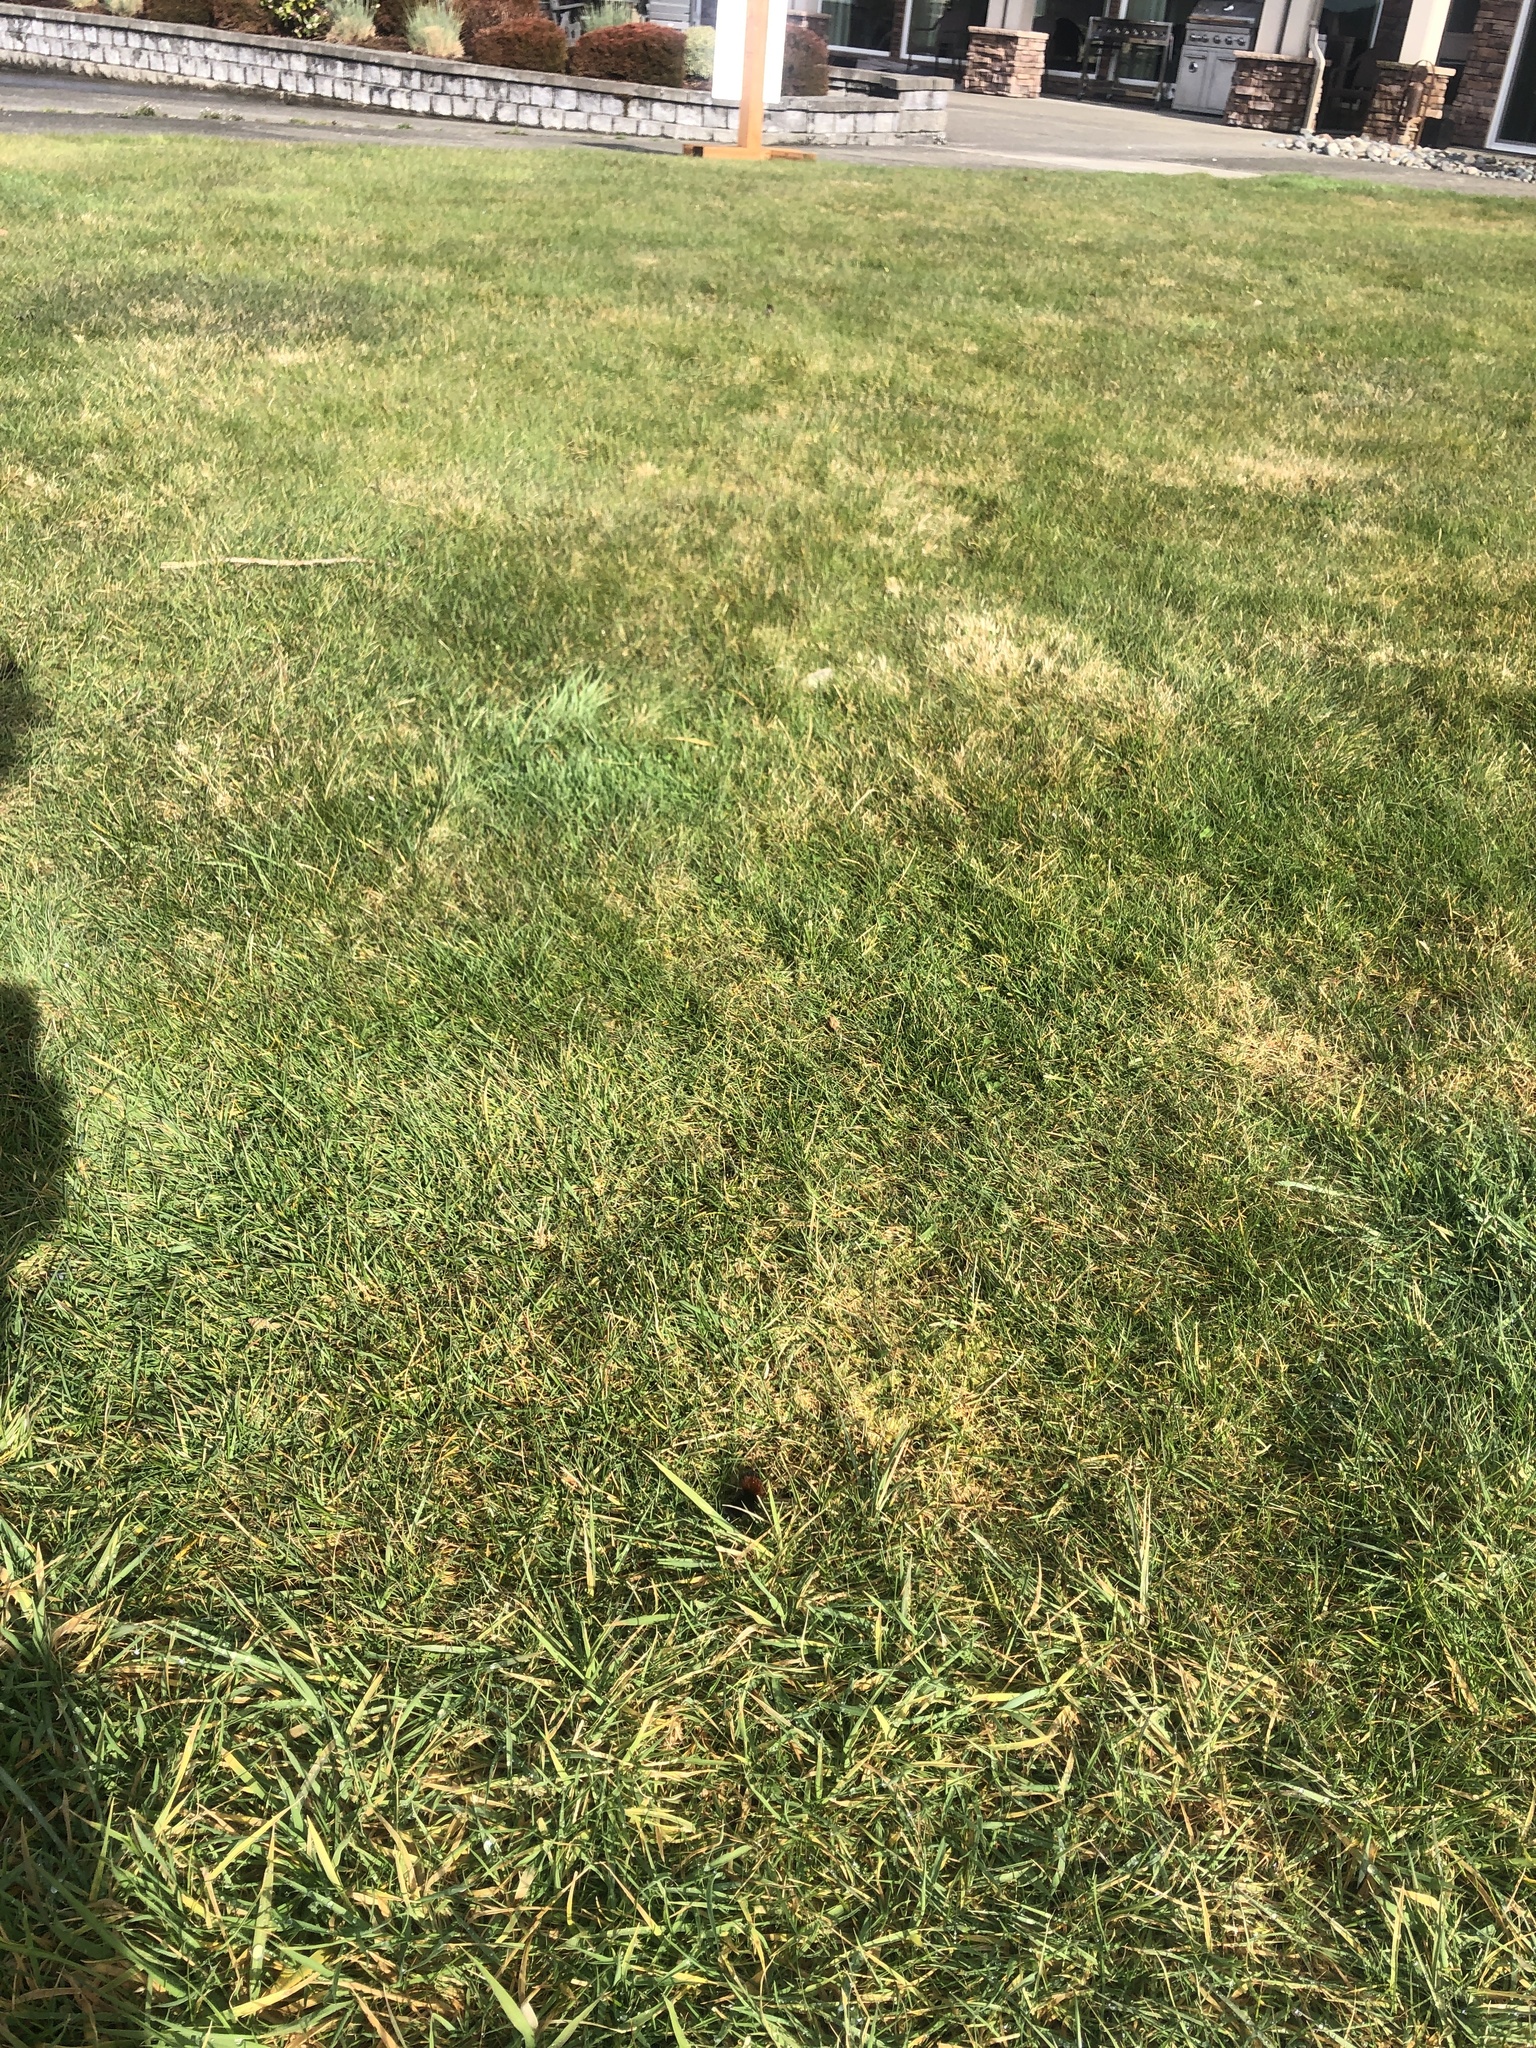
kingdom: Animalia
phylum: Arthropoda
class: Insecta
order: Lepidoptera
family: Erebidae
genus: Pyrrharctia
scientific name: Pyrrharctia isabella
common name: Isabella tiger moth
